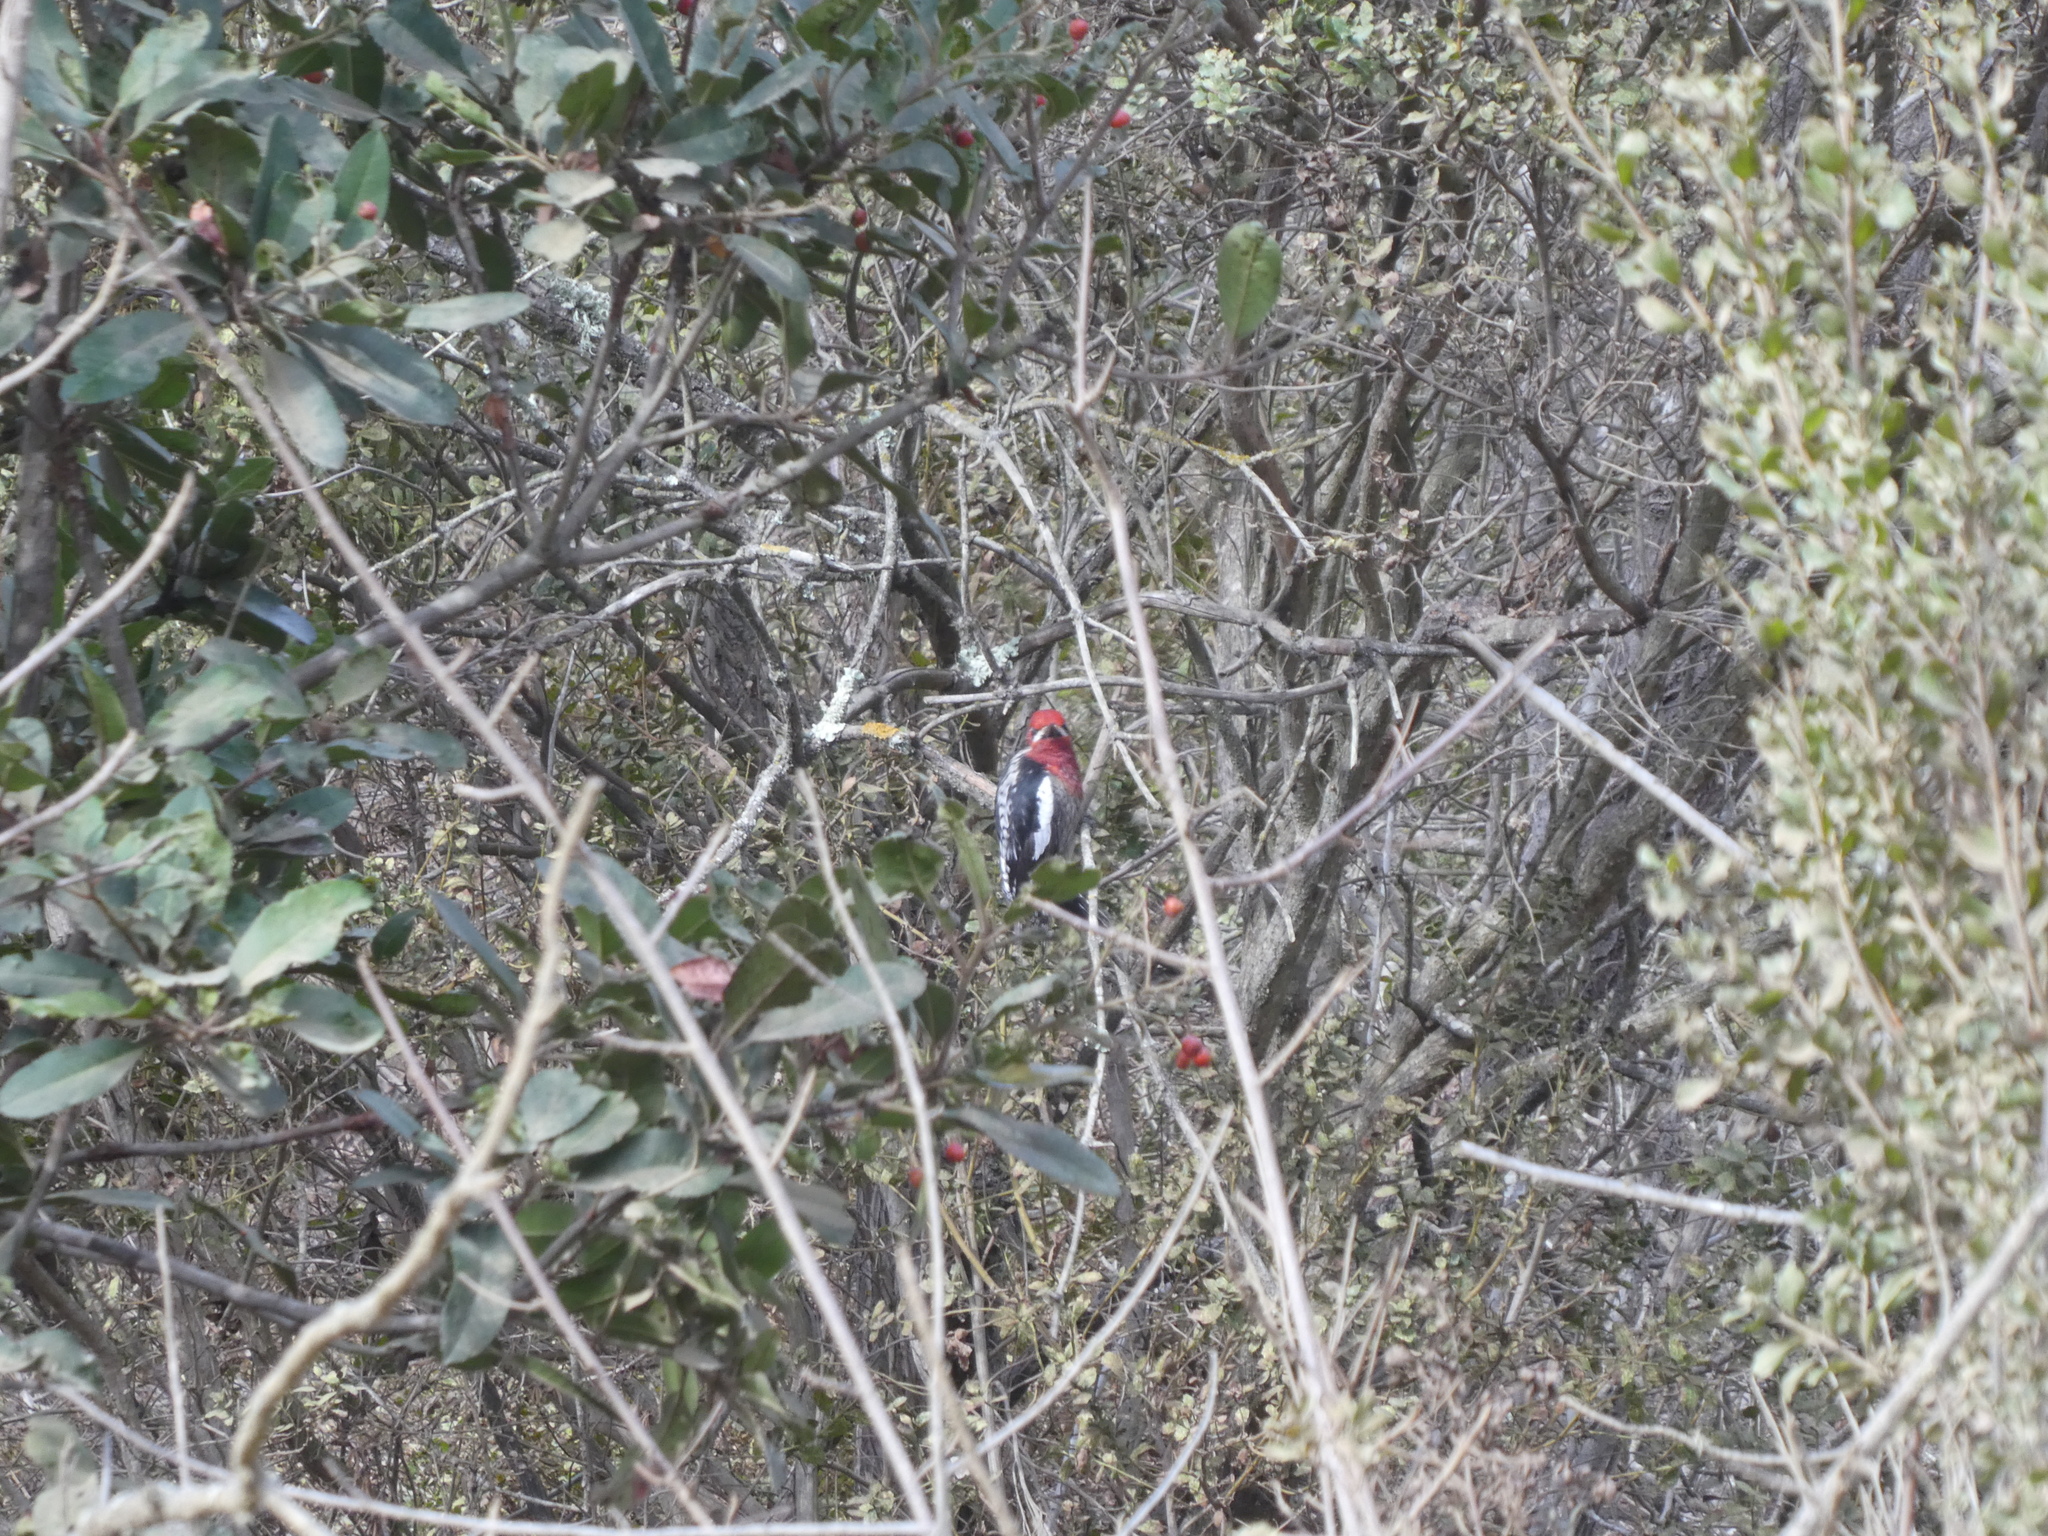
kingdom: Animalia
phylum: Chordata
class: Aves
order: Piciformes
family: Picidae
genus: Sphyrapicus
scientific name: Sphyrapicus ruber
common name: Red-breasted sapsucker
